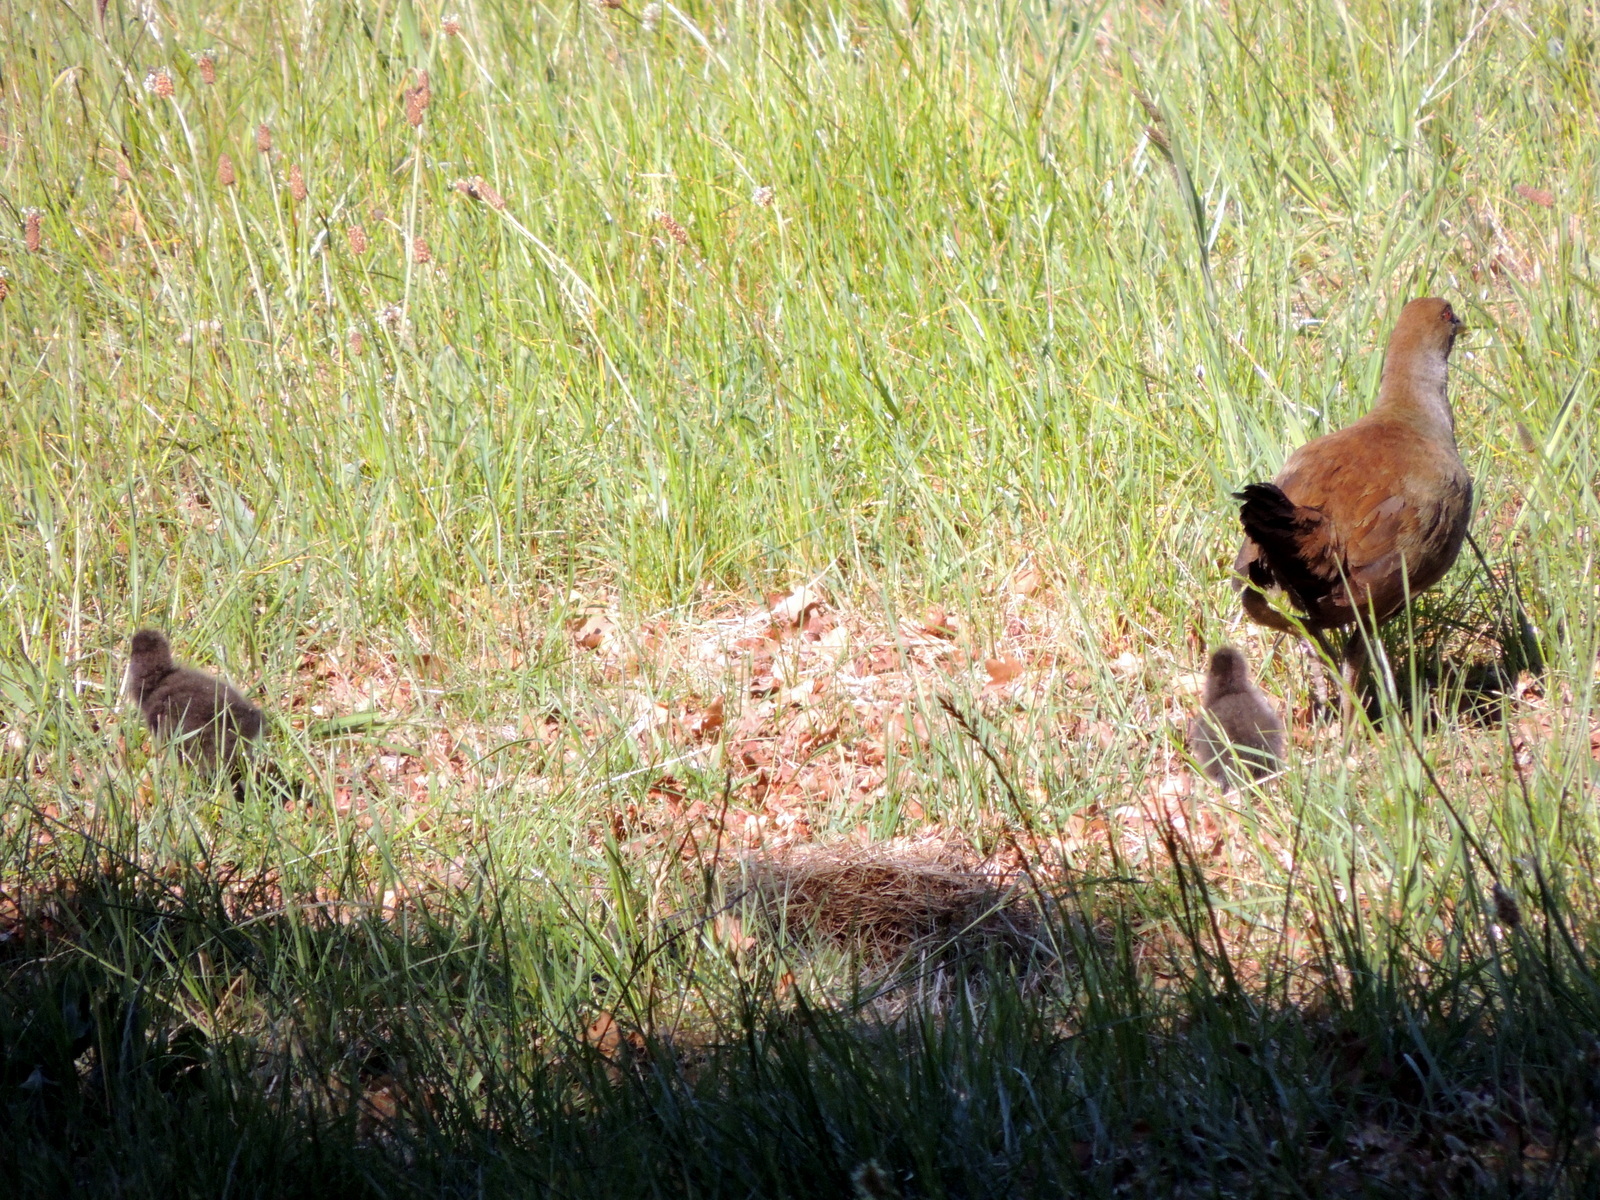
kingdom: Animalia
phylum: Chordata
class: Aves
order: Gruiformes
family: Rallidae
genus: Gallinula
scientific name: Gallinula mortierii
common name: Tasmanian nativehen
